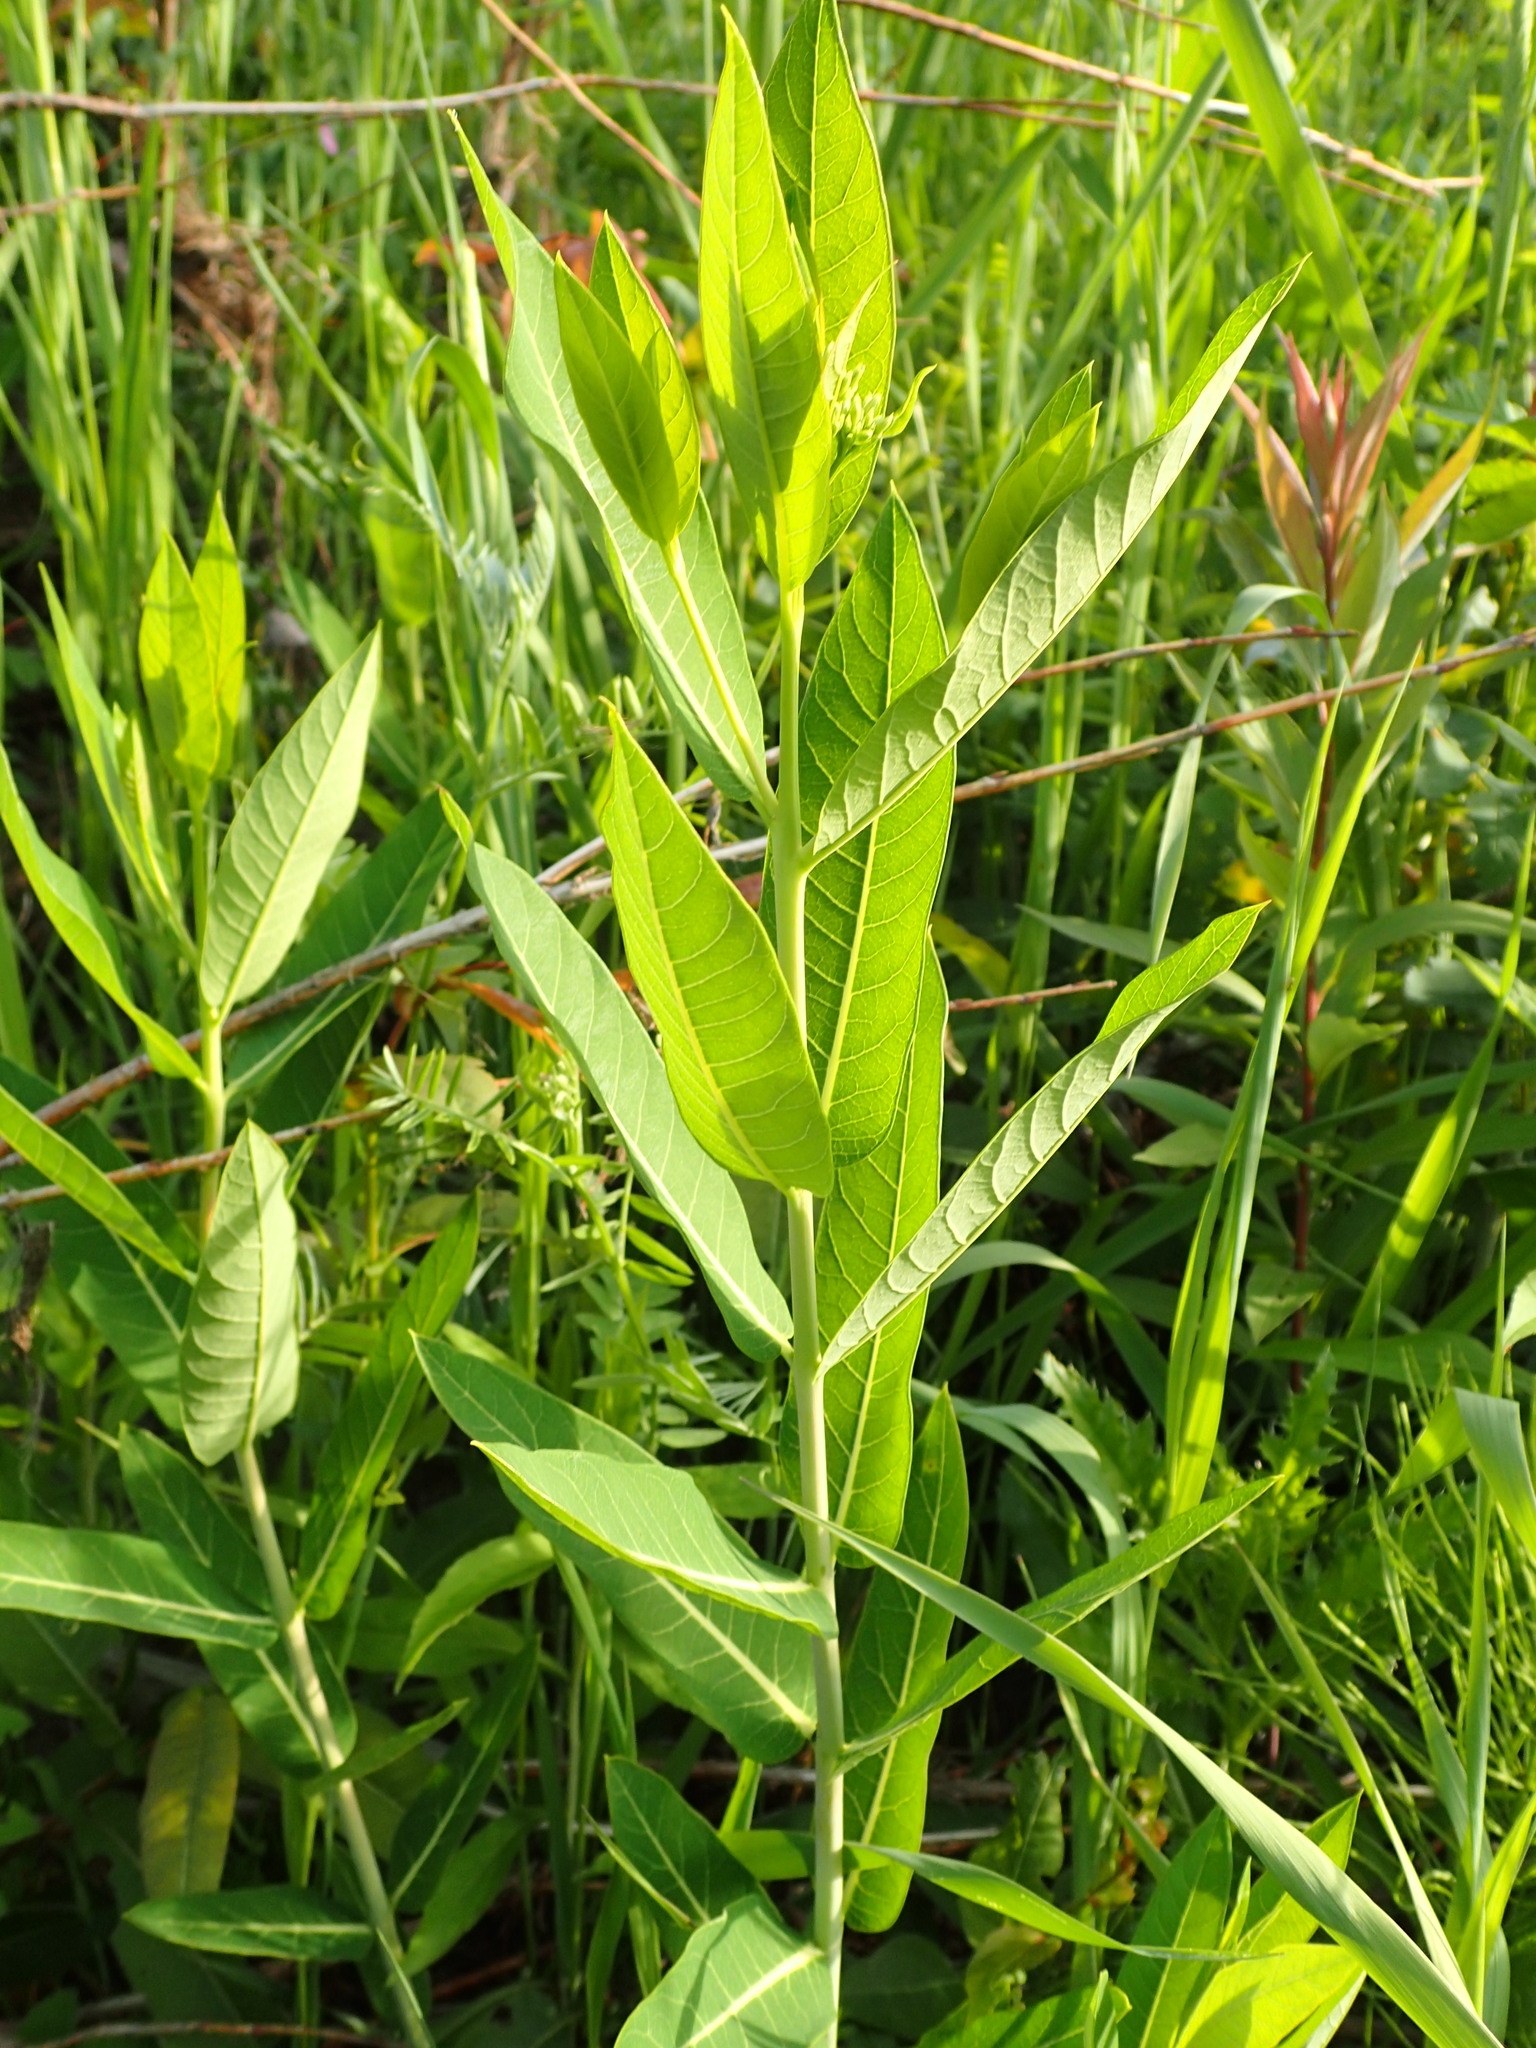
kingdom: Plantae
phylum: Tracheophyta
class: Magnoliopsida
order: Gentianales
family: Apocynaceae
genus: Apocynum
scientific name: Apocynum cannabinum
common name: Hemp dogbane
